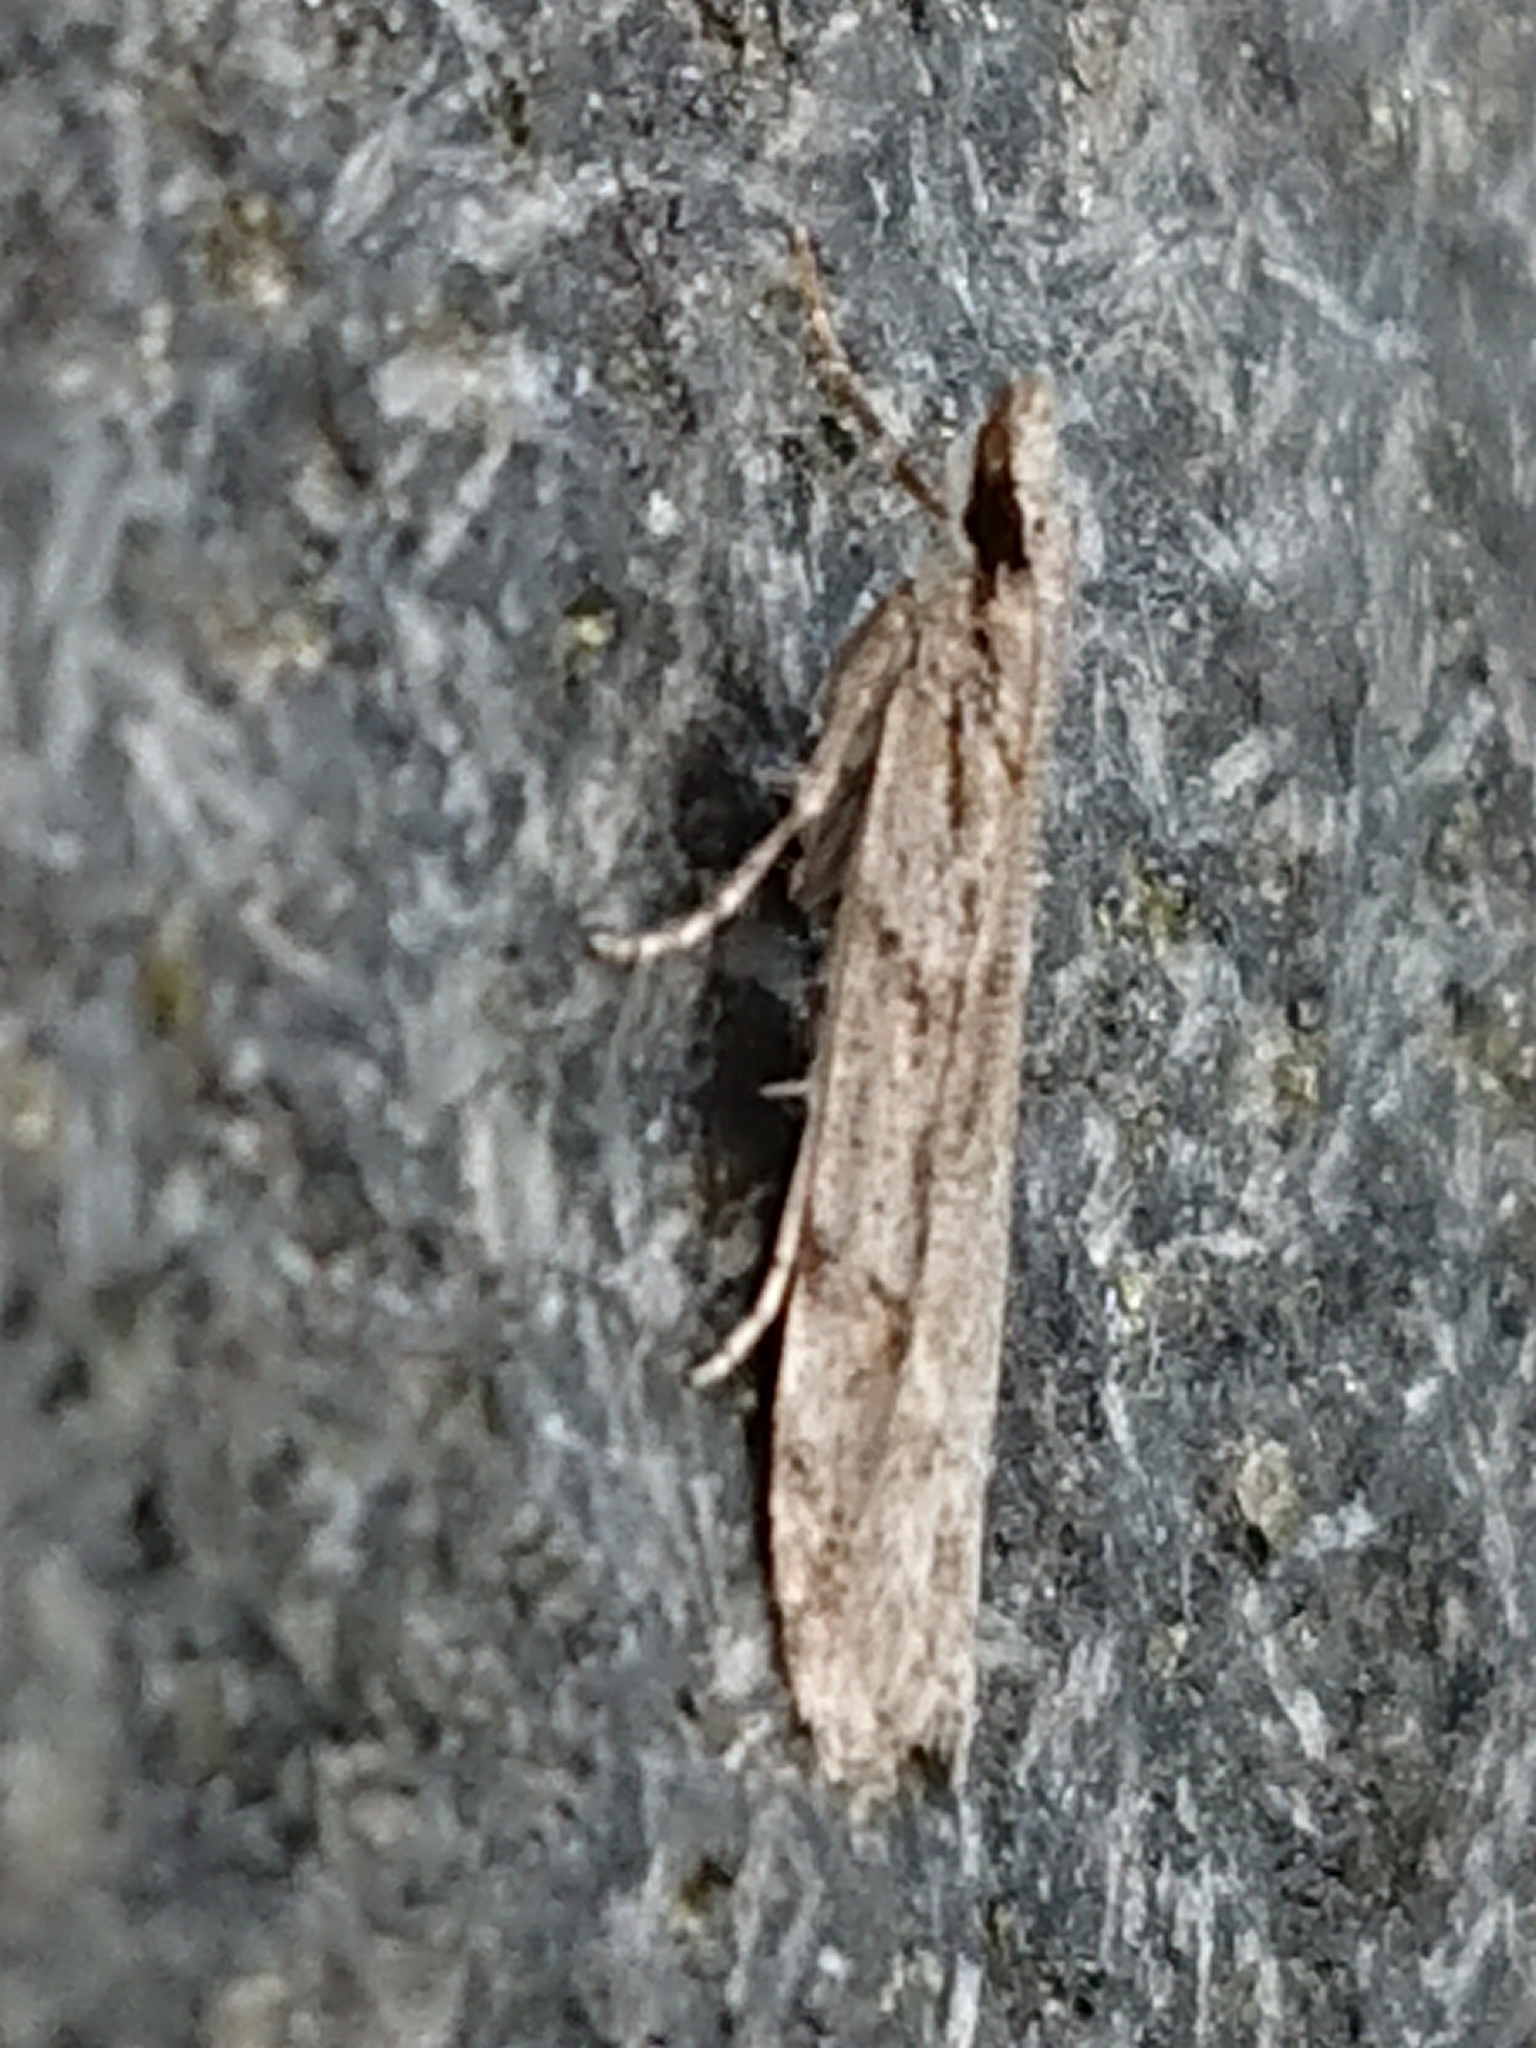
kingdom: Animalia
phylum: Arthropoda
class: Insecta
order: Lepidoptera
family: Crambidae
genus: Scoparia
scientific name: Scoparia chalicodes
